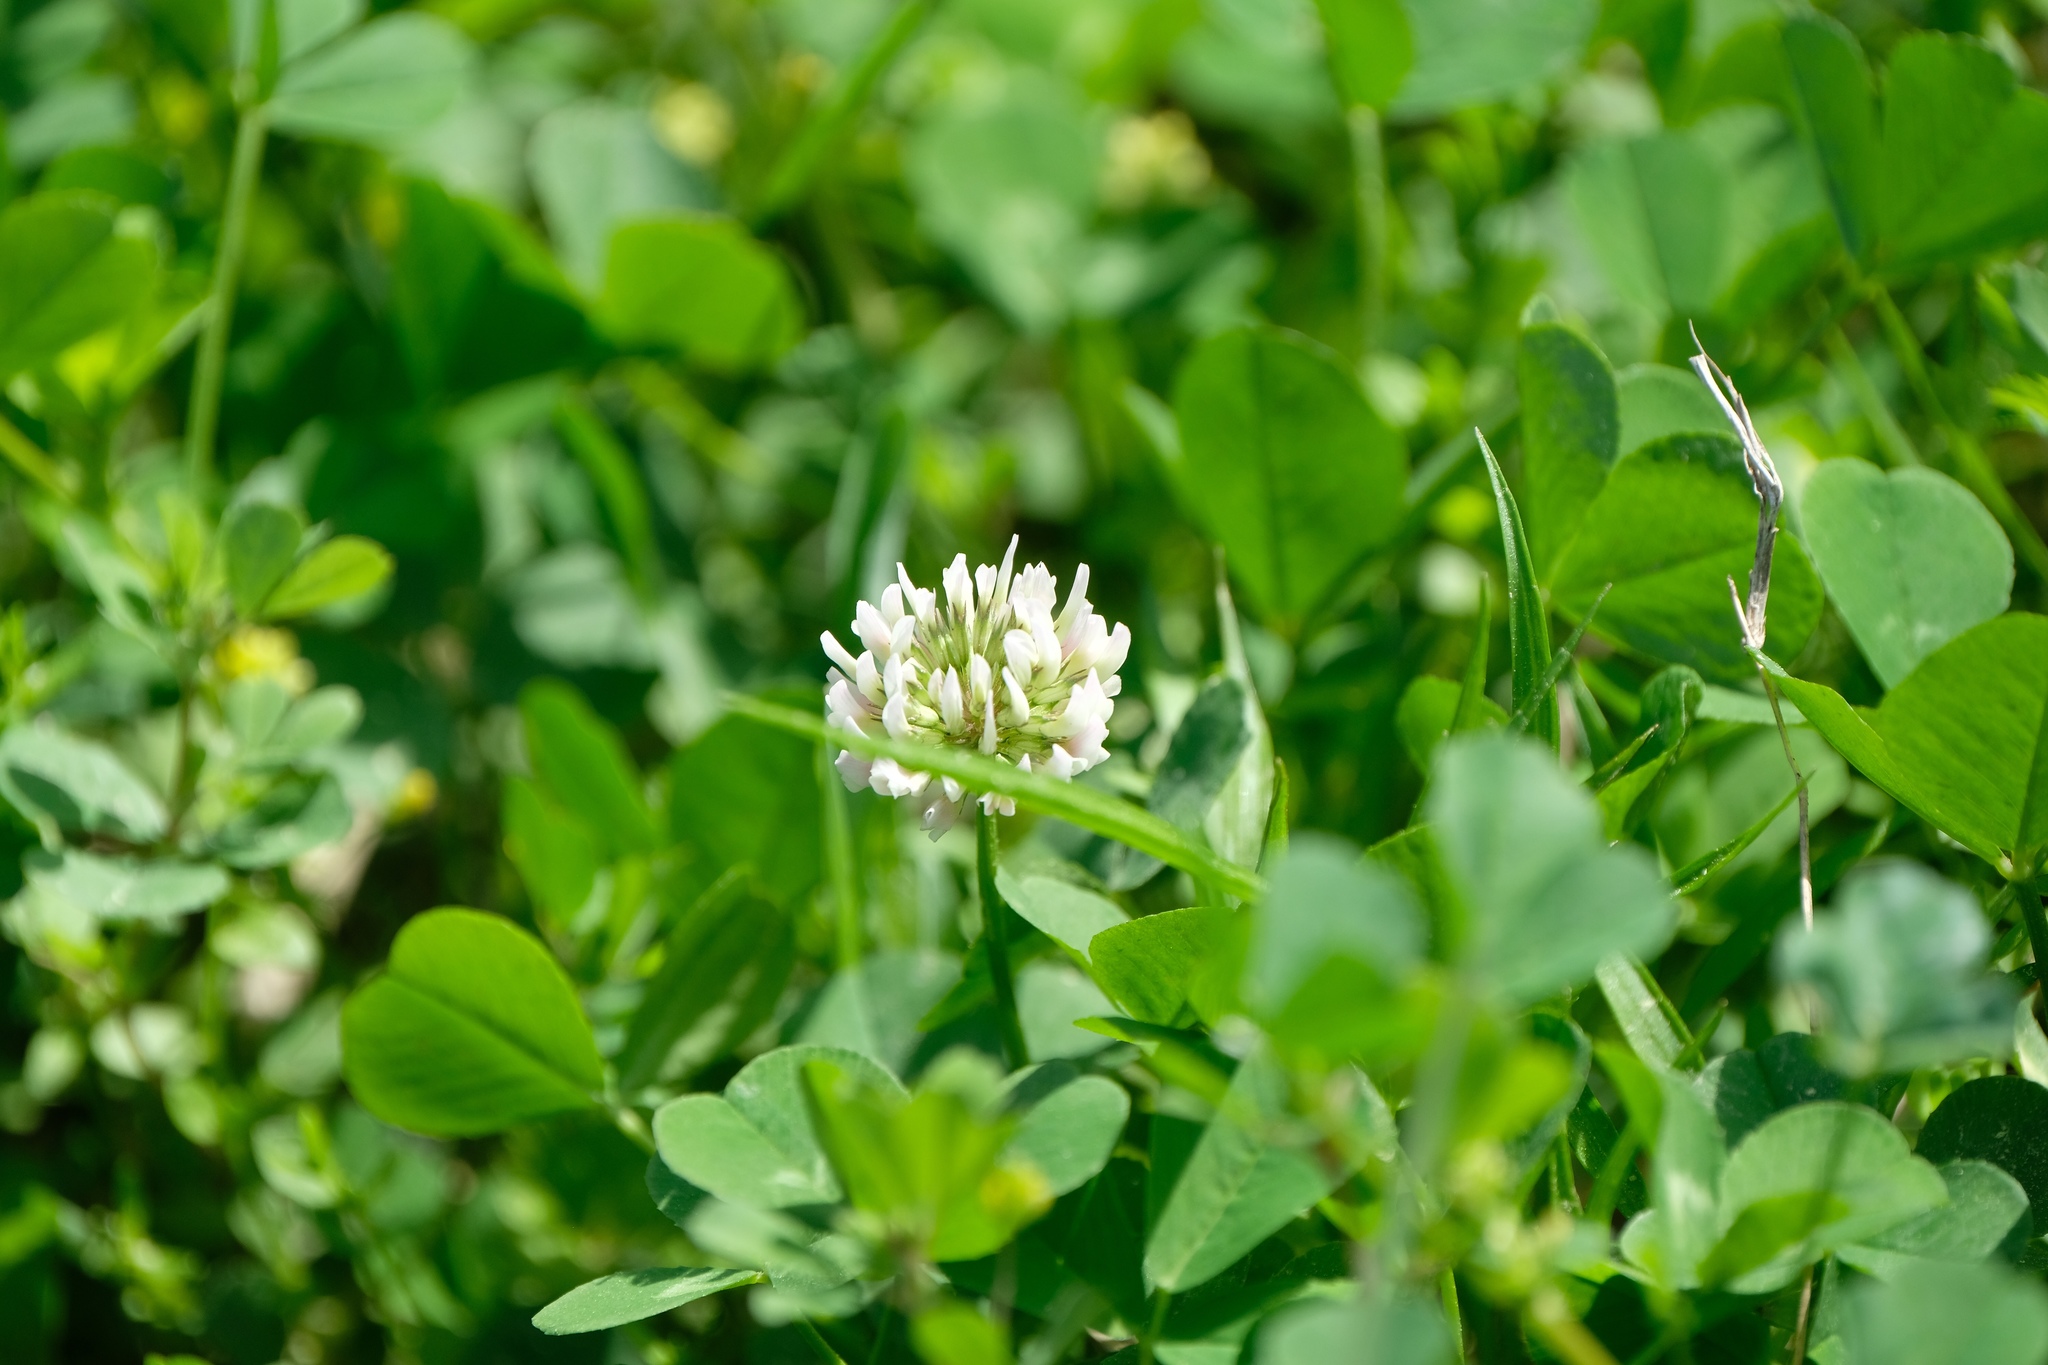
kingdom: Plantae
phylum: Tracheophyta
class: Magnoliopsida
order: Fabales
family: Fabaceae
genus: Trifolium
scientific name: Trifolium repens
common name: White clover
